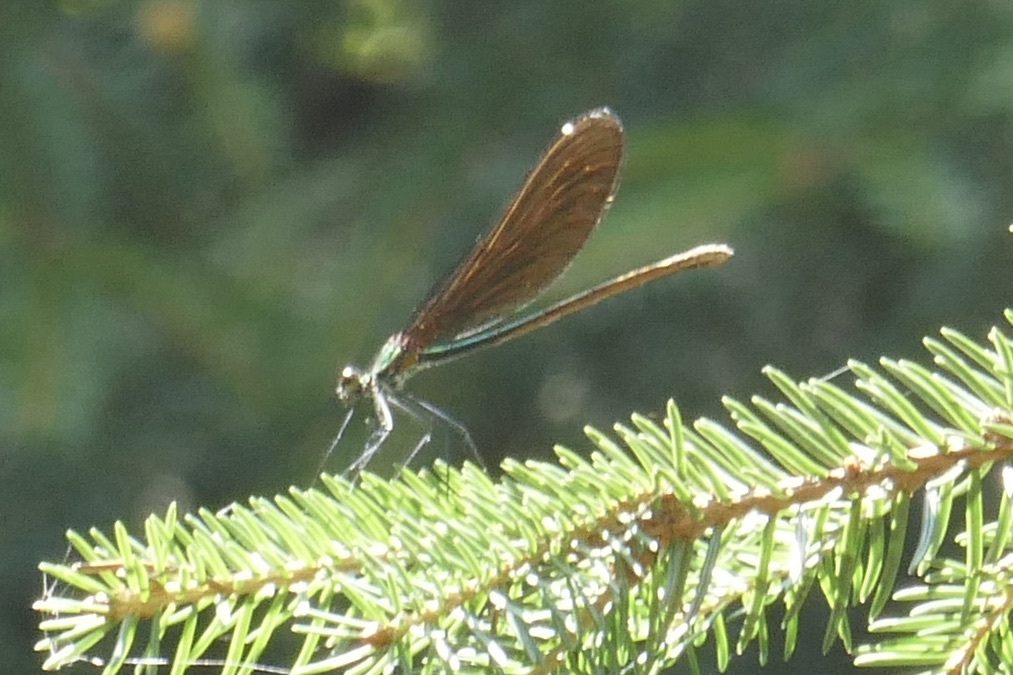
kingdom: Animalia
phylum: Arthropoda
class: Insecta
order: Odonata
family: Calopterygidae
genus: Calopteryx
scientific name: Calopteryx virgo
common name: Beautiful demoiselle
